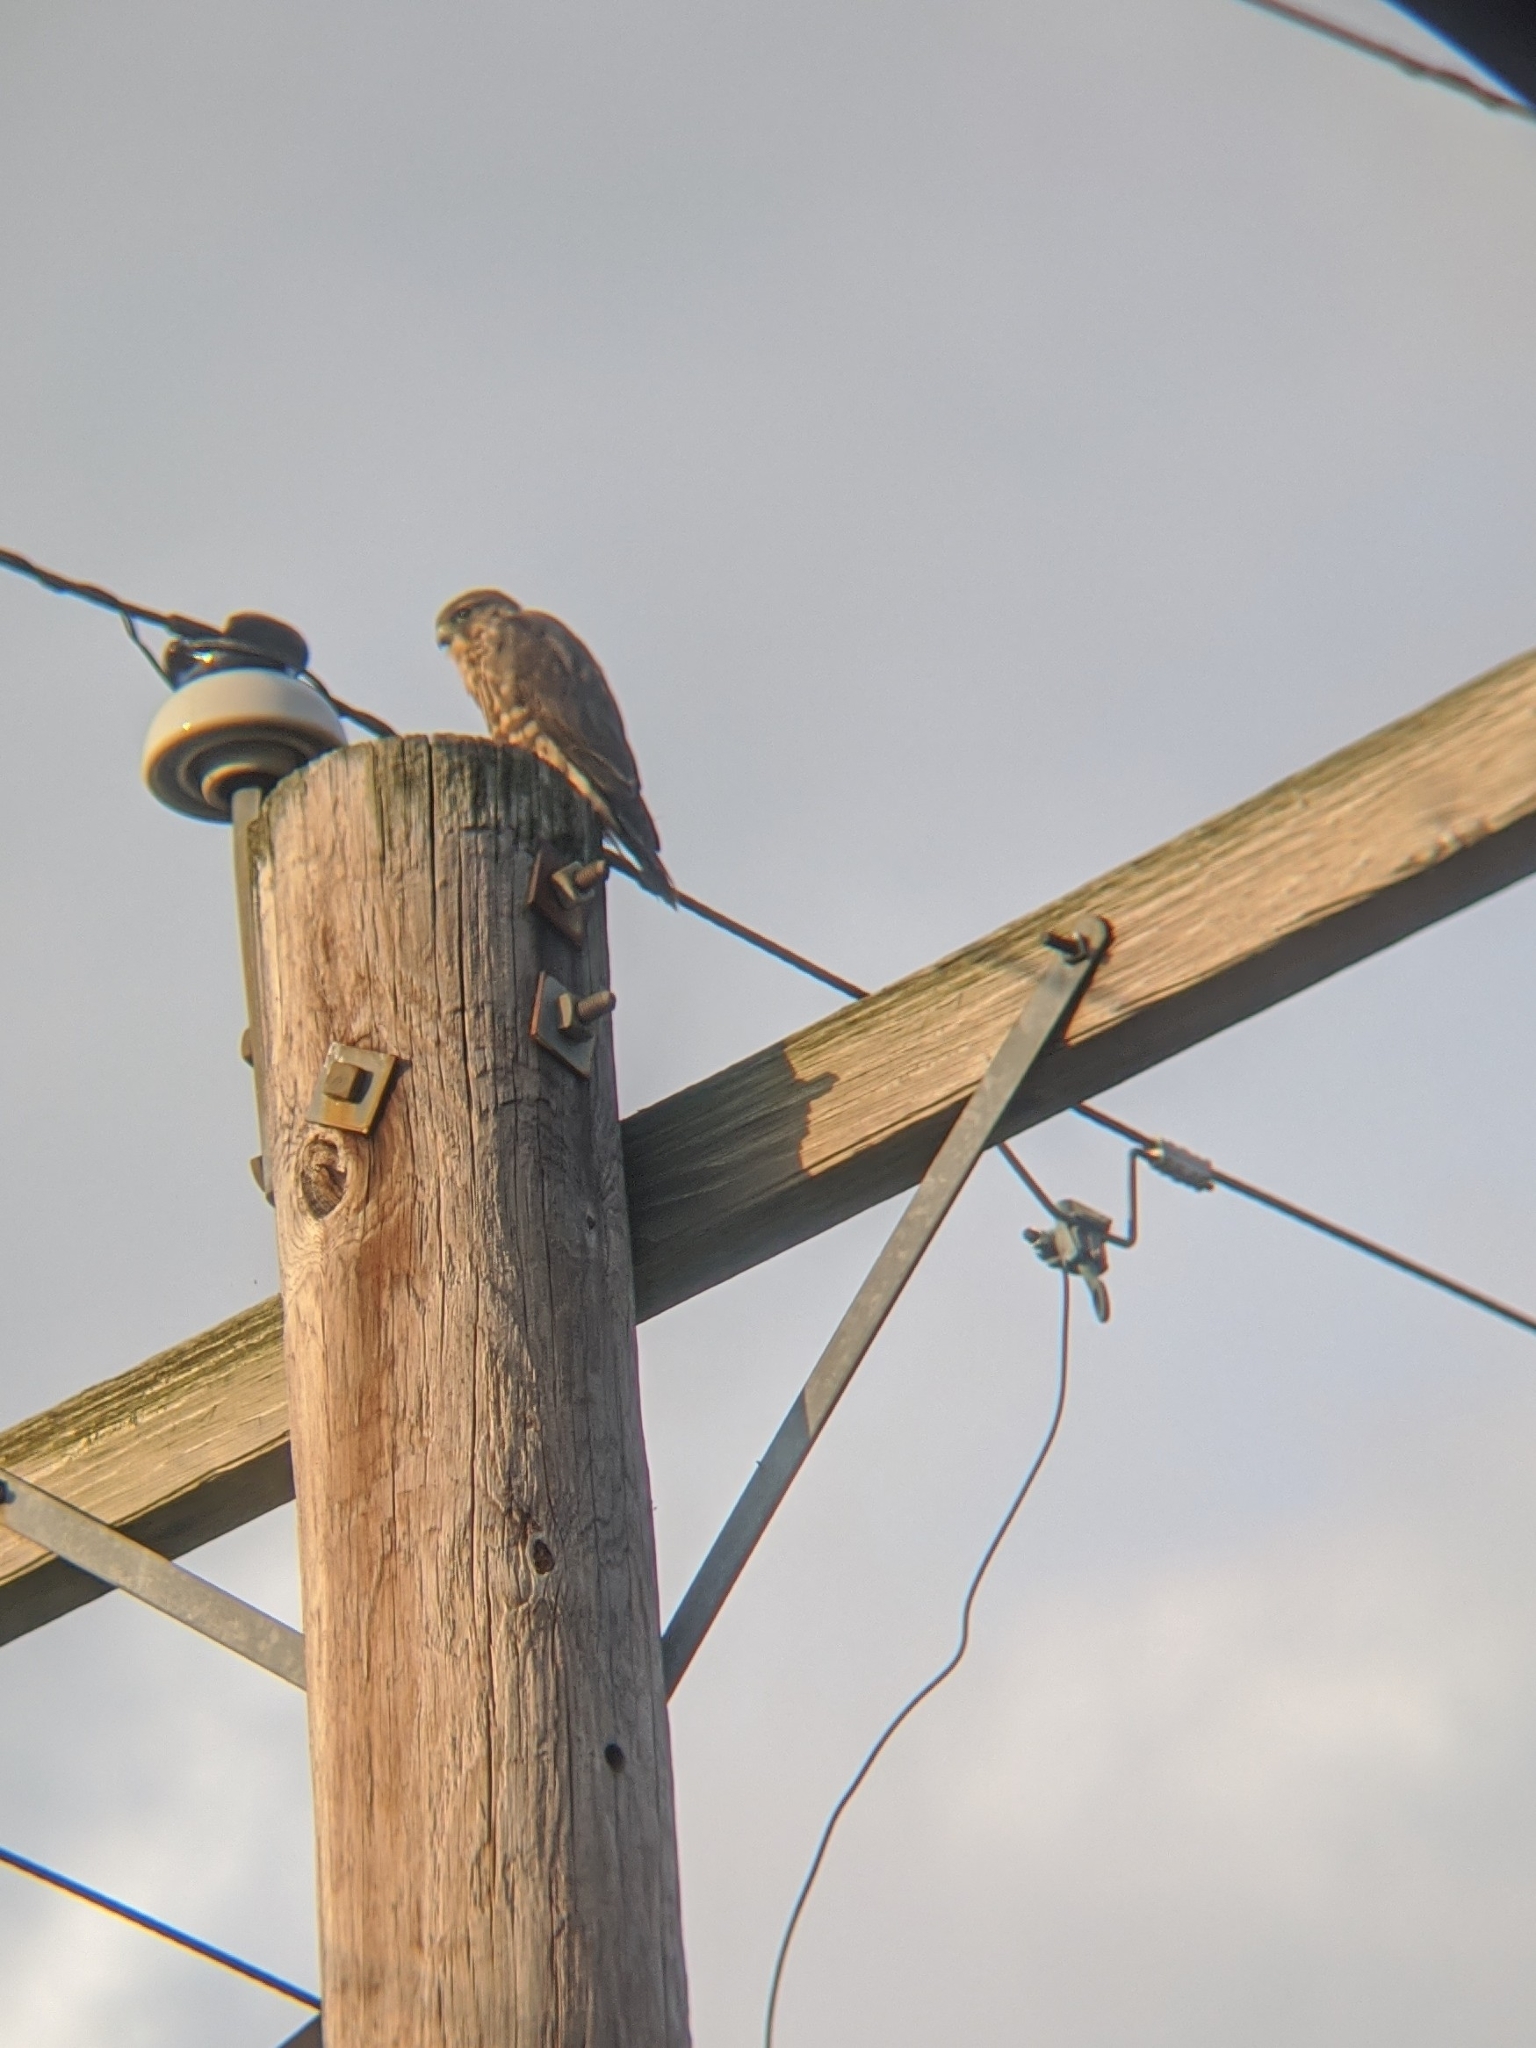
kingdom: Animalia
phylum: Chordata
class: Aves
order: Falconiformes
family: Falconidae
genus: Falco
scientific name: Falco columbarius
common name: Merlin
